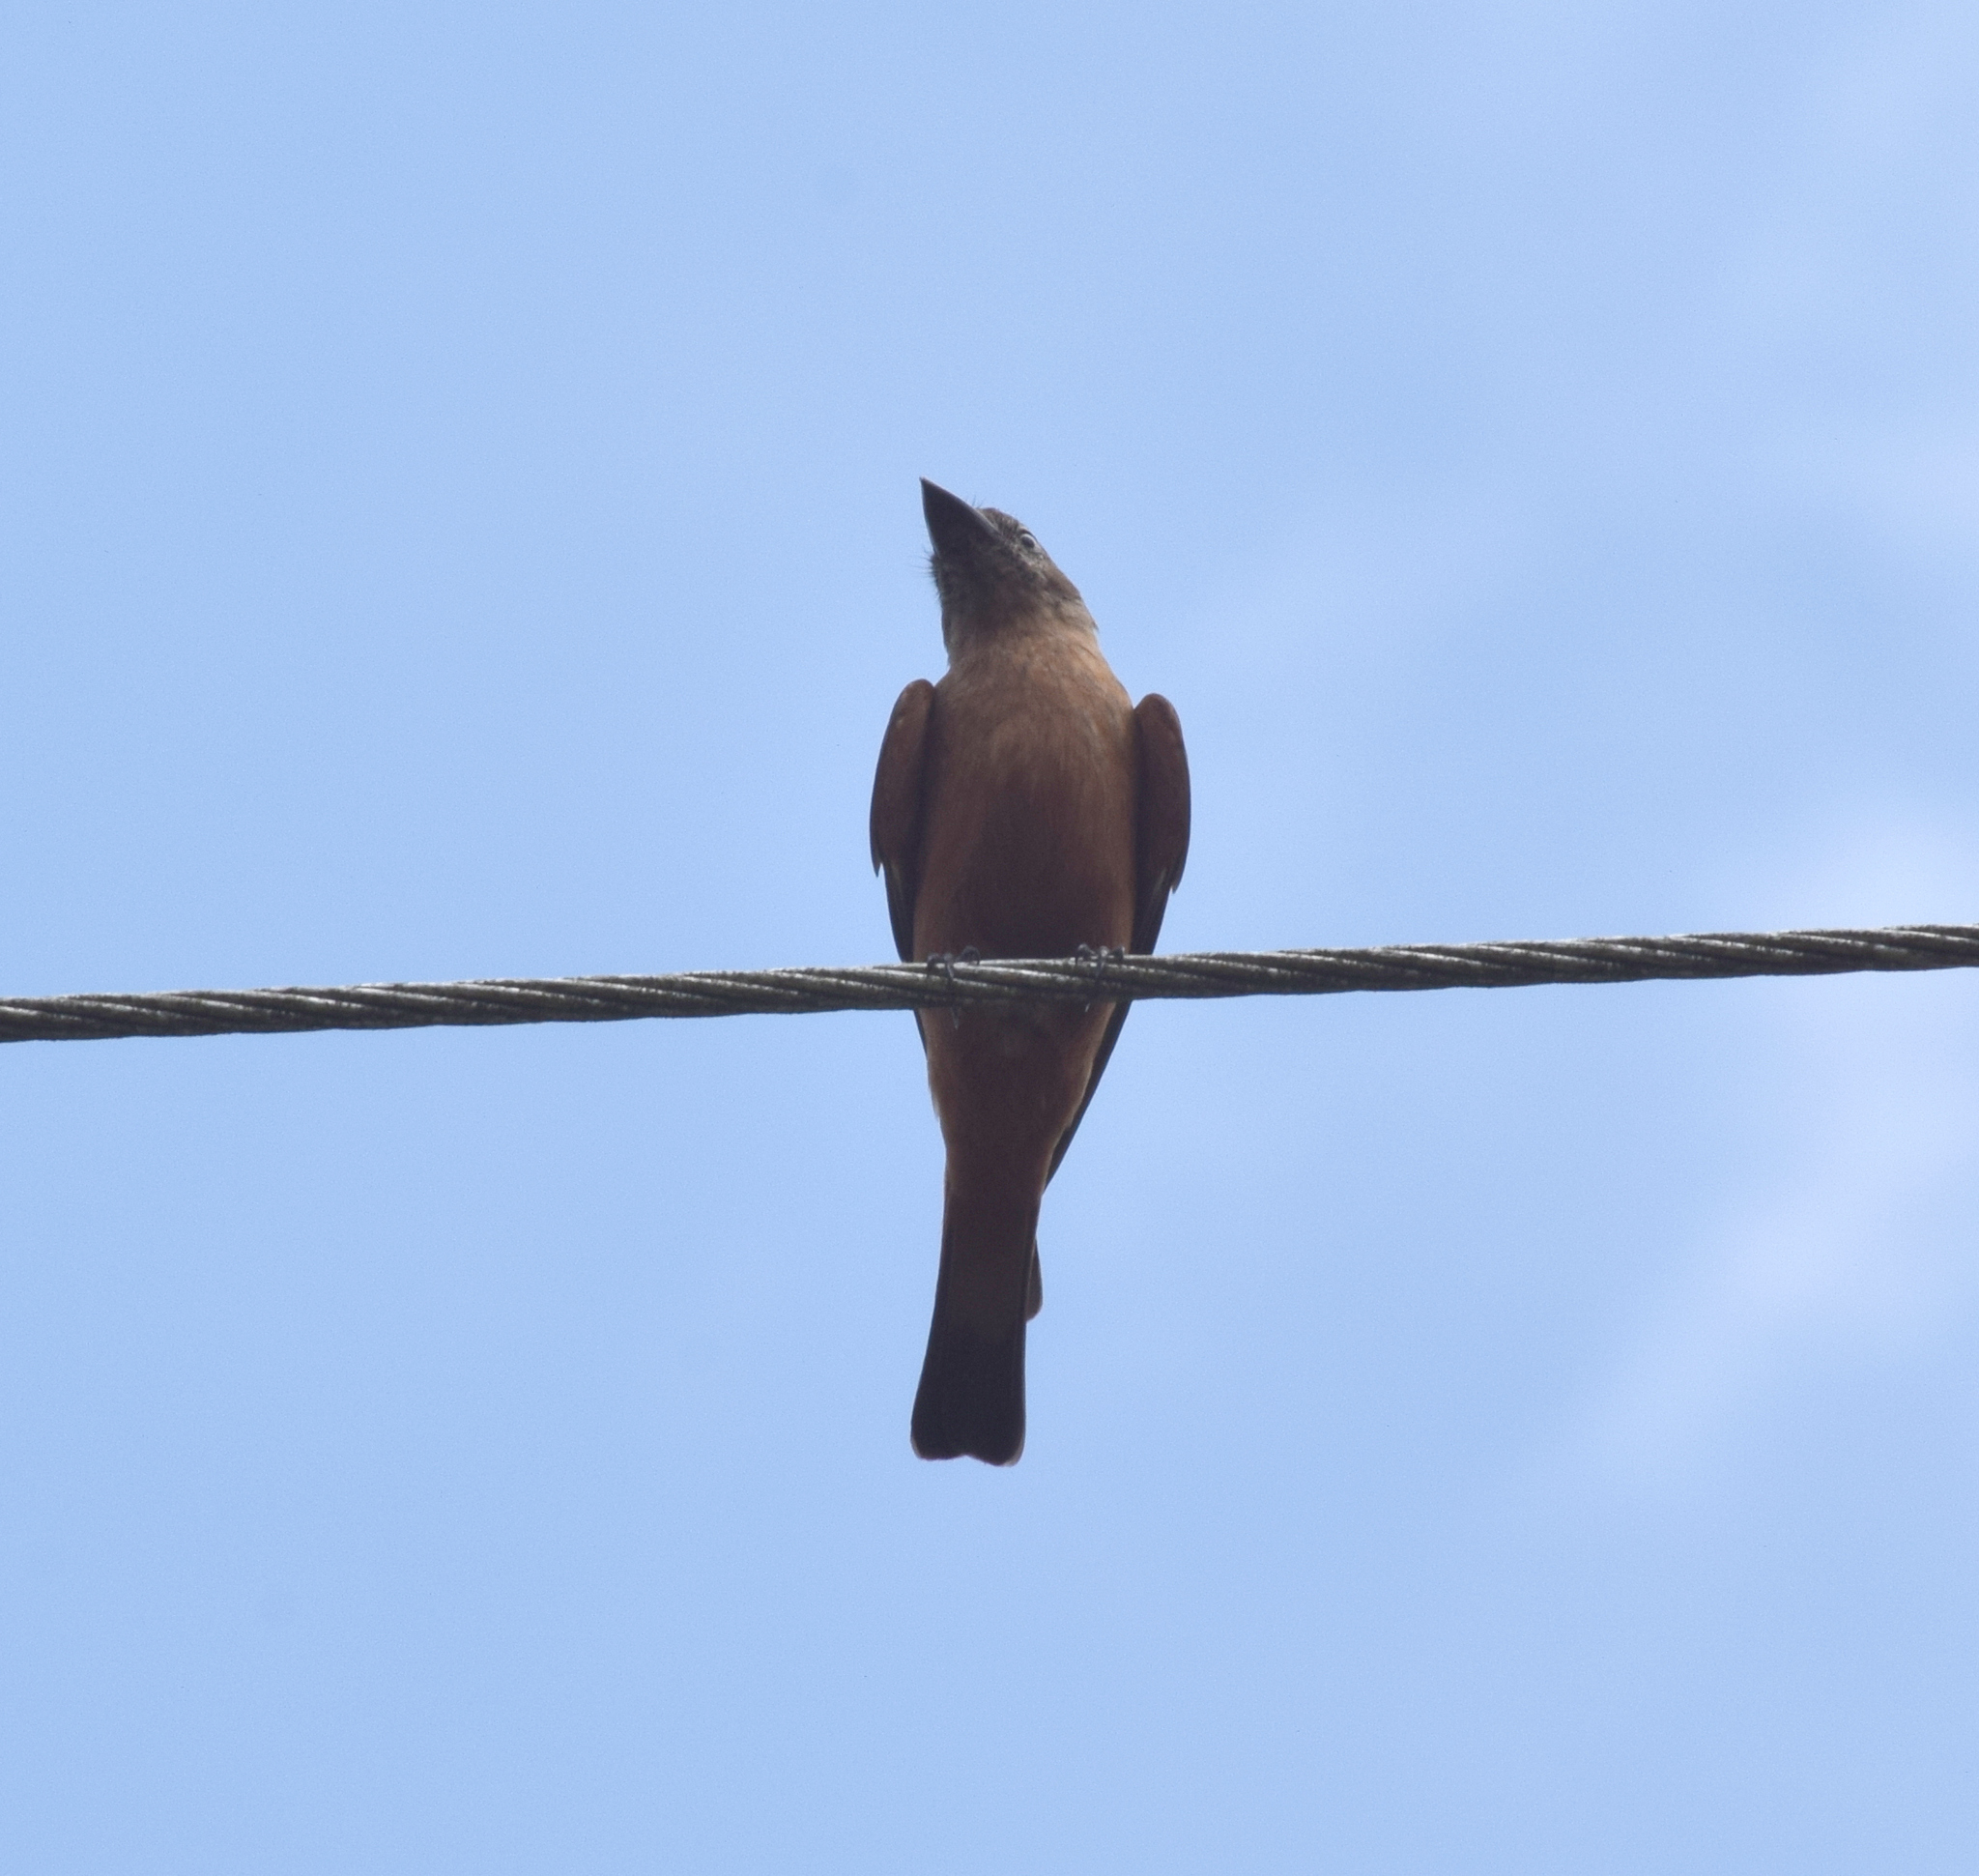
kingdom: Animalia
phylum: Chordata
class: Aves
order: Passeriformes
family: Tyrannidae
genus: Hirundinea
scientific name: Hirundinea ferruginea
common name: Cliff flycatcher
